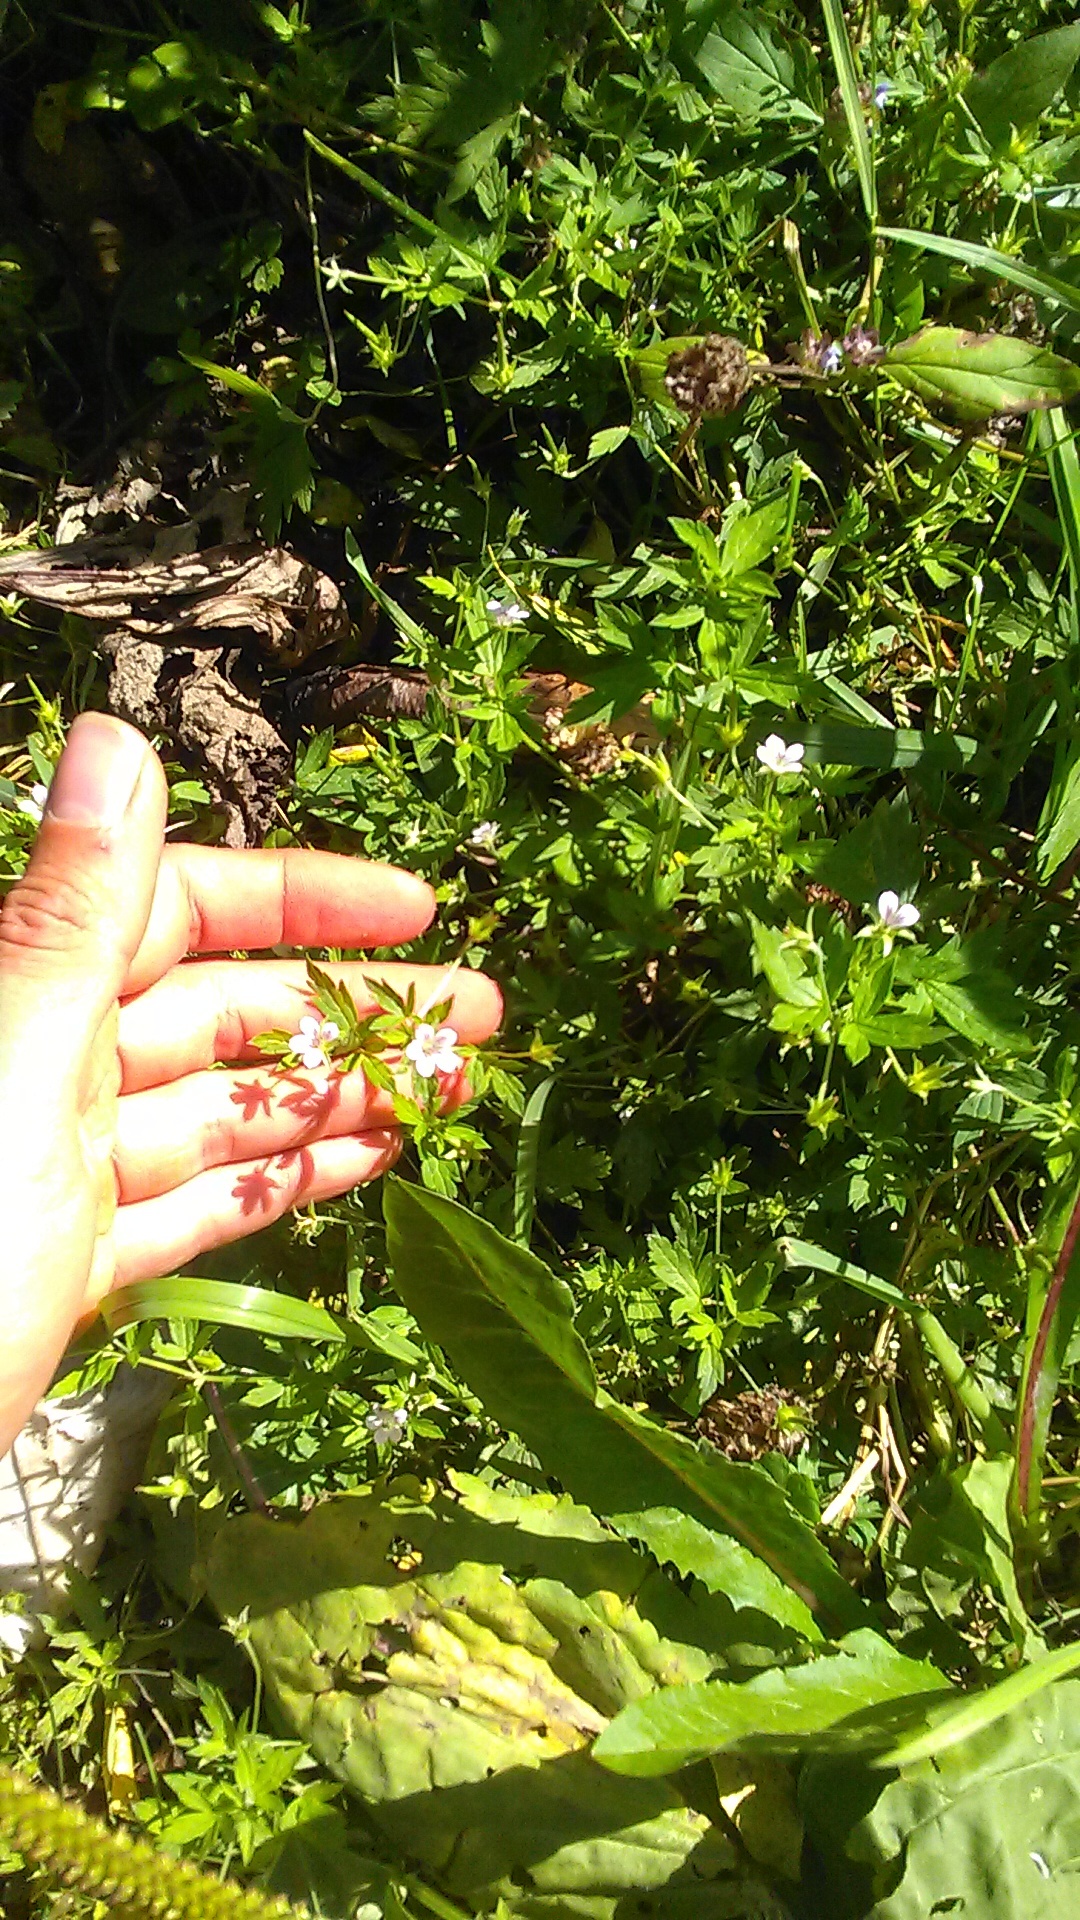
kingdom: Plantae
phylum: Tracheophyta
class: Magnoliopsida
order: Geraniales
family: Geraniaceae
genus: Geranium
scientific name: Geranium sibiricum
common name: Siberian crane's-bill
